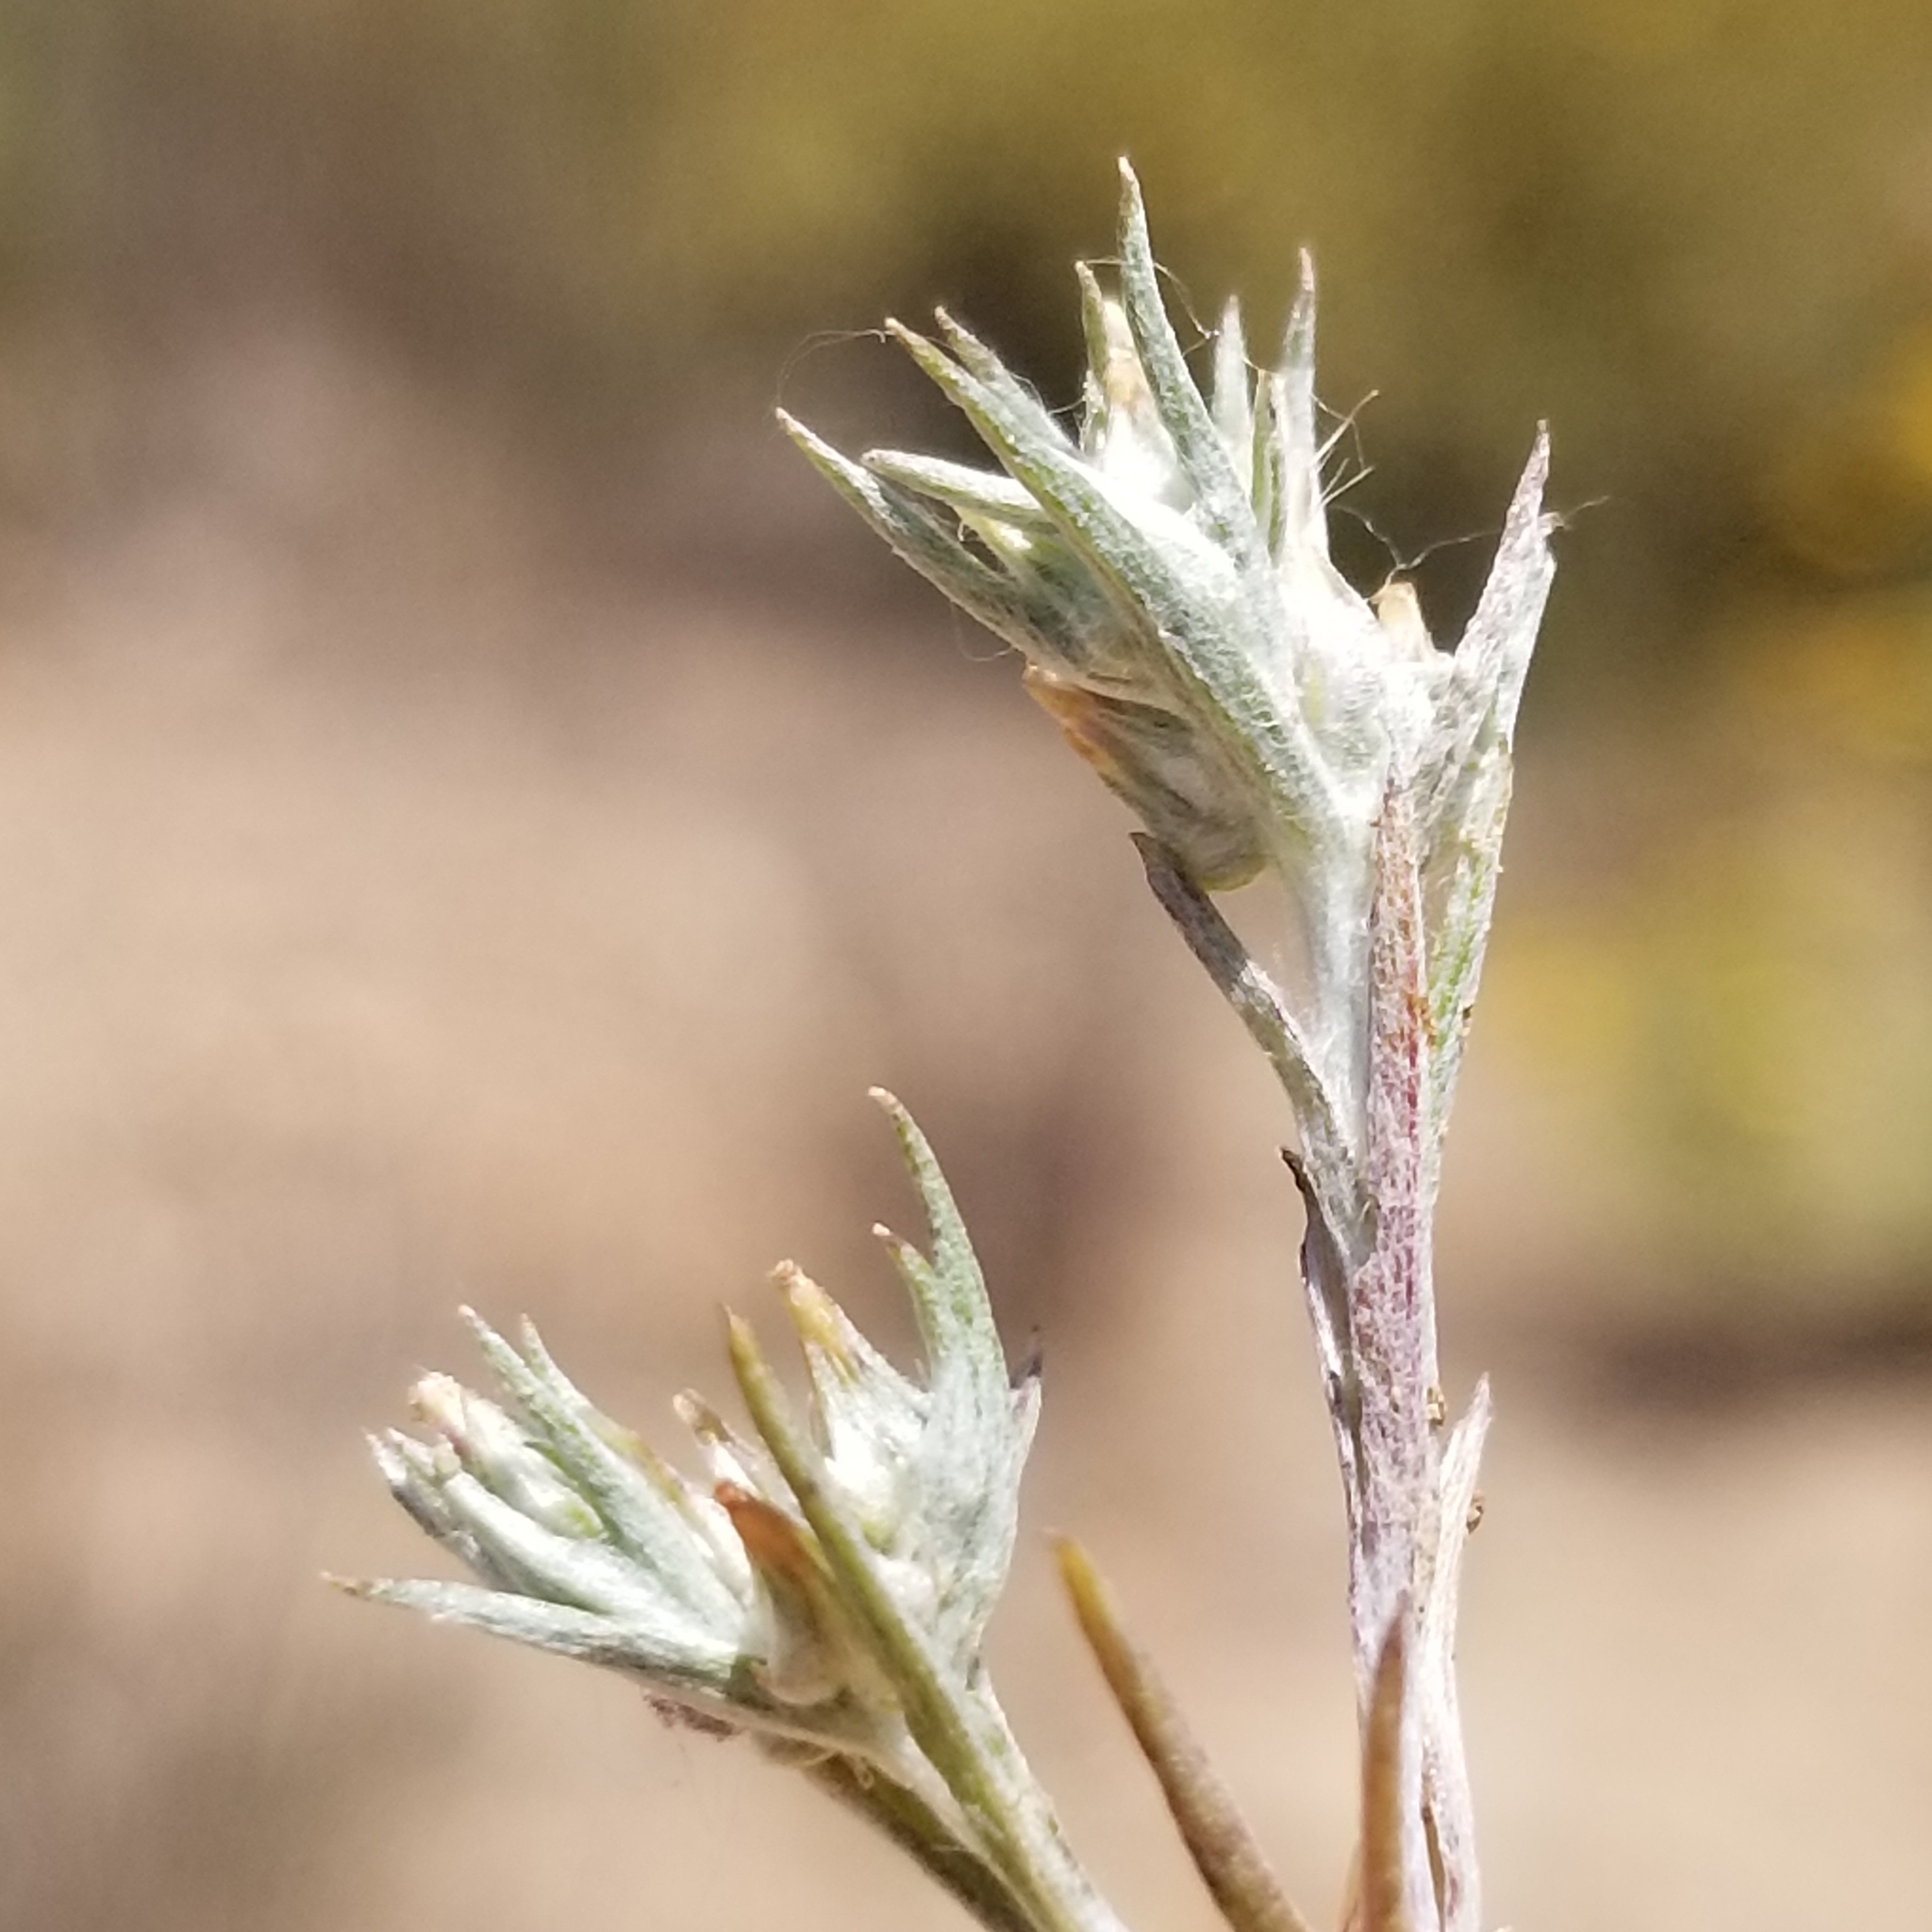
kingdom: Plantae
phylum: Tracheophyta
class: Magnoliopsida
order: Asterales
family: Asteraceae
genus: Logfia
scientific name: Logfia gallica
